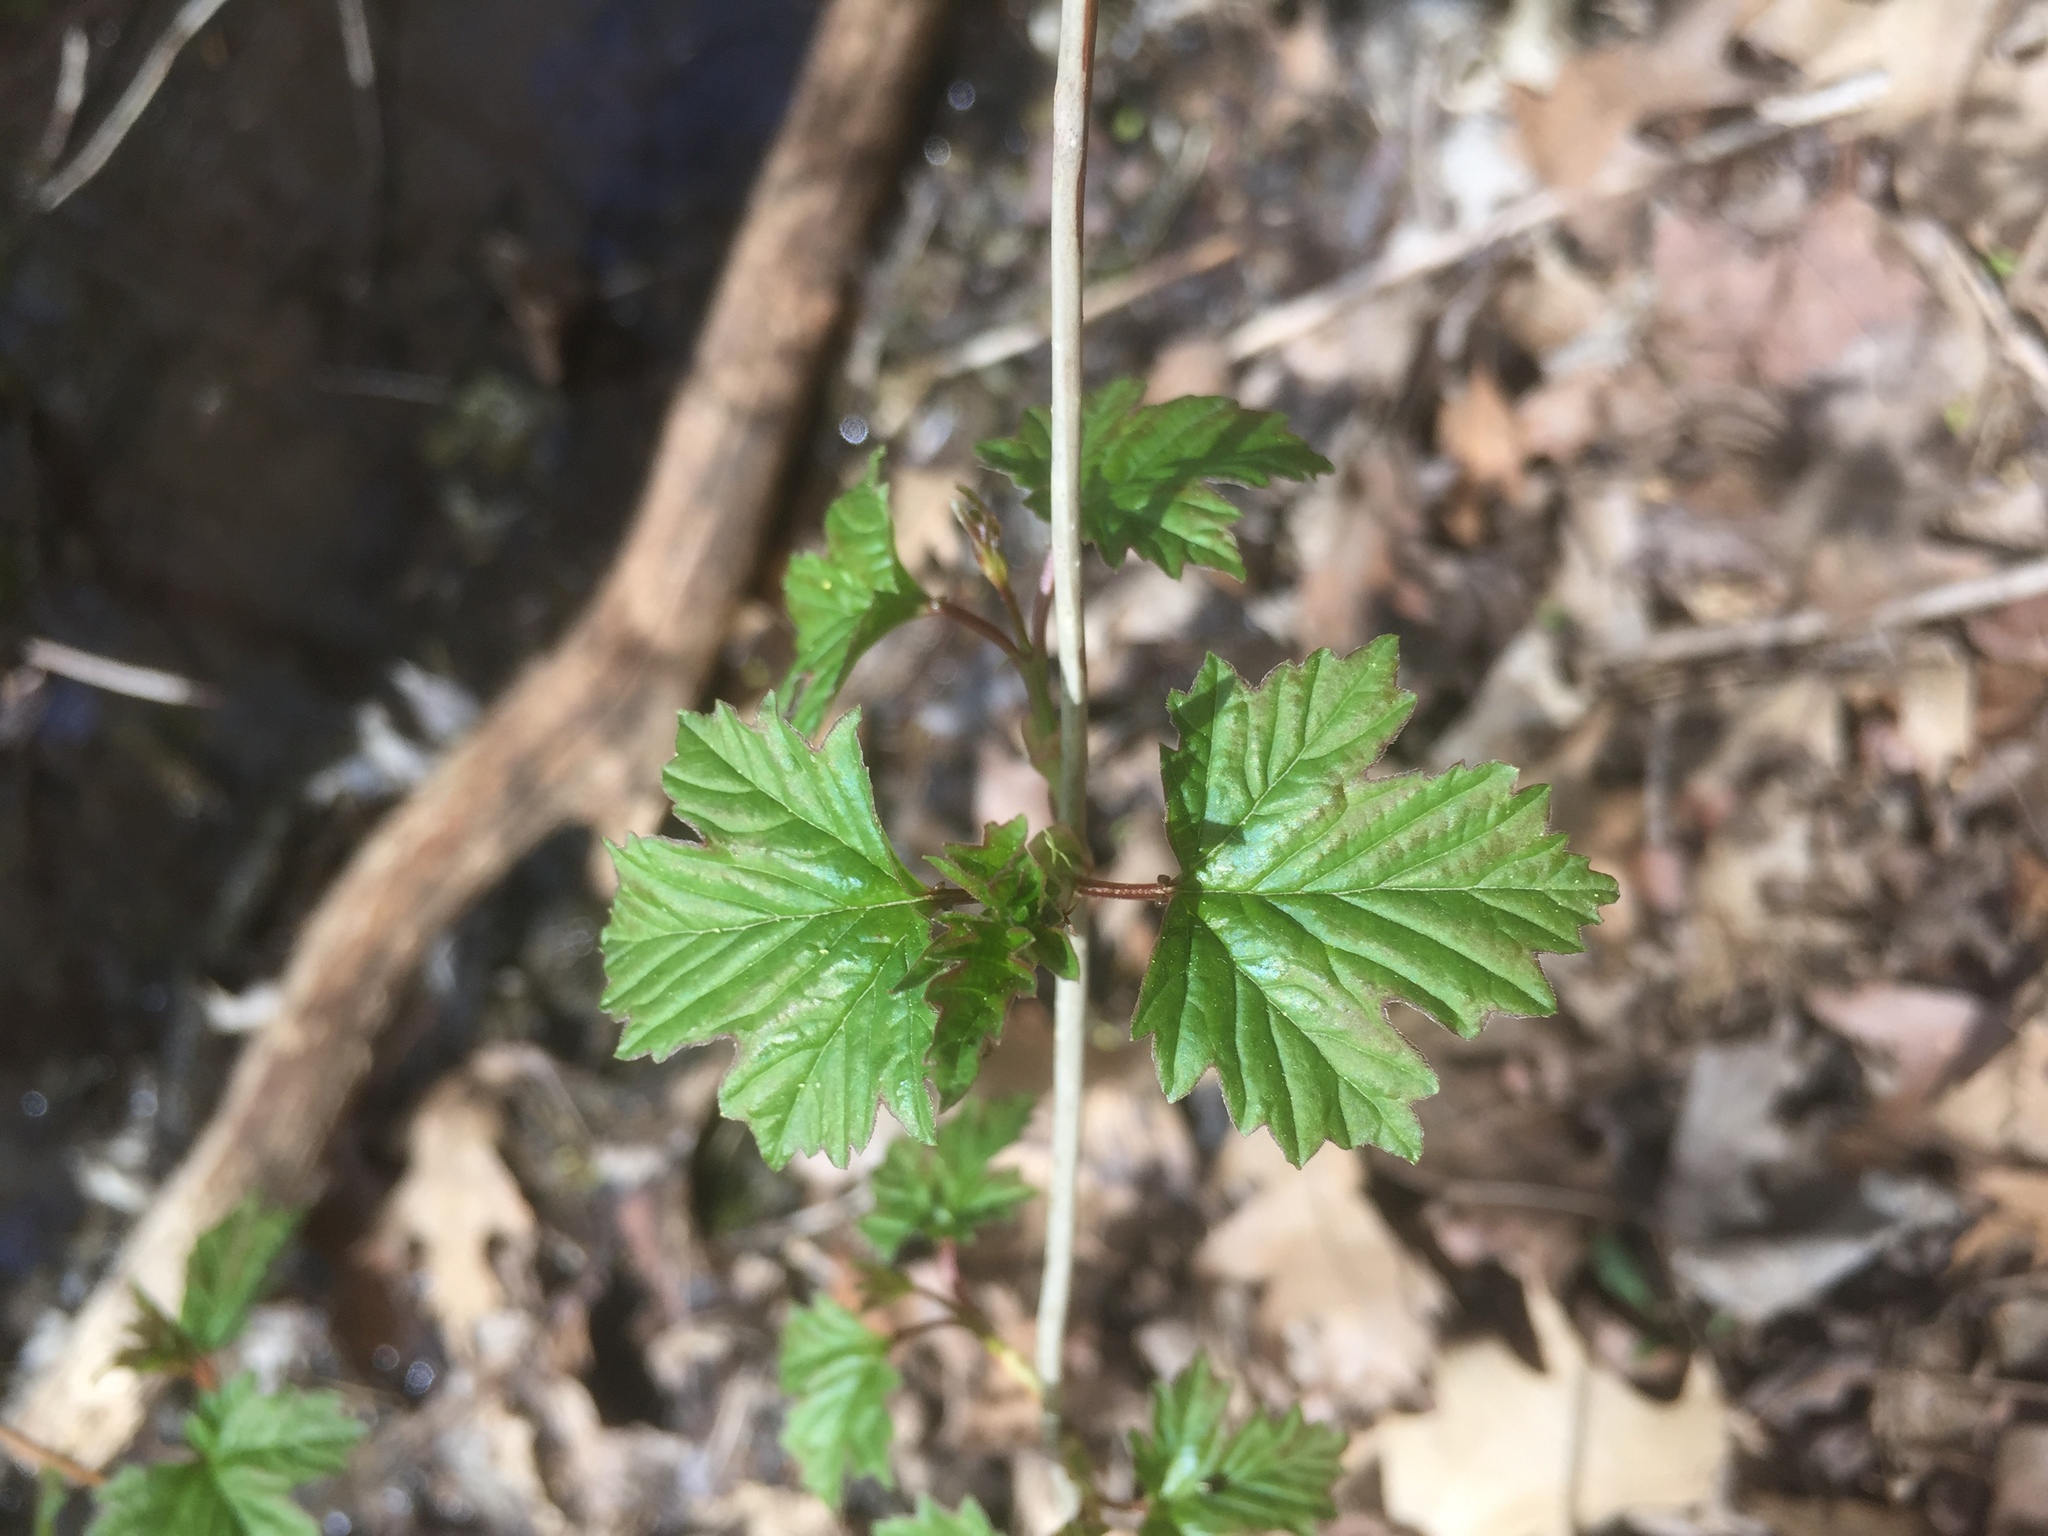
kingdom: Plantae
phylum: Tracheophyta
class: Magnoliopsida
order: Dipsacales
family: Viburnaceae
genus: Viburnum
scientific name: Viburnum opulus
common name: Guelder-rose
